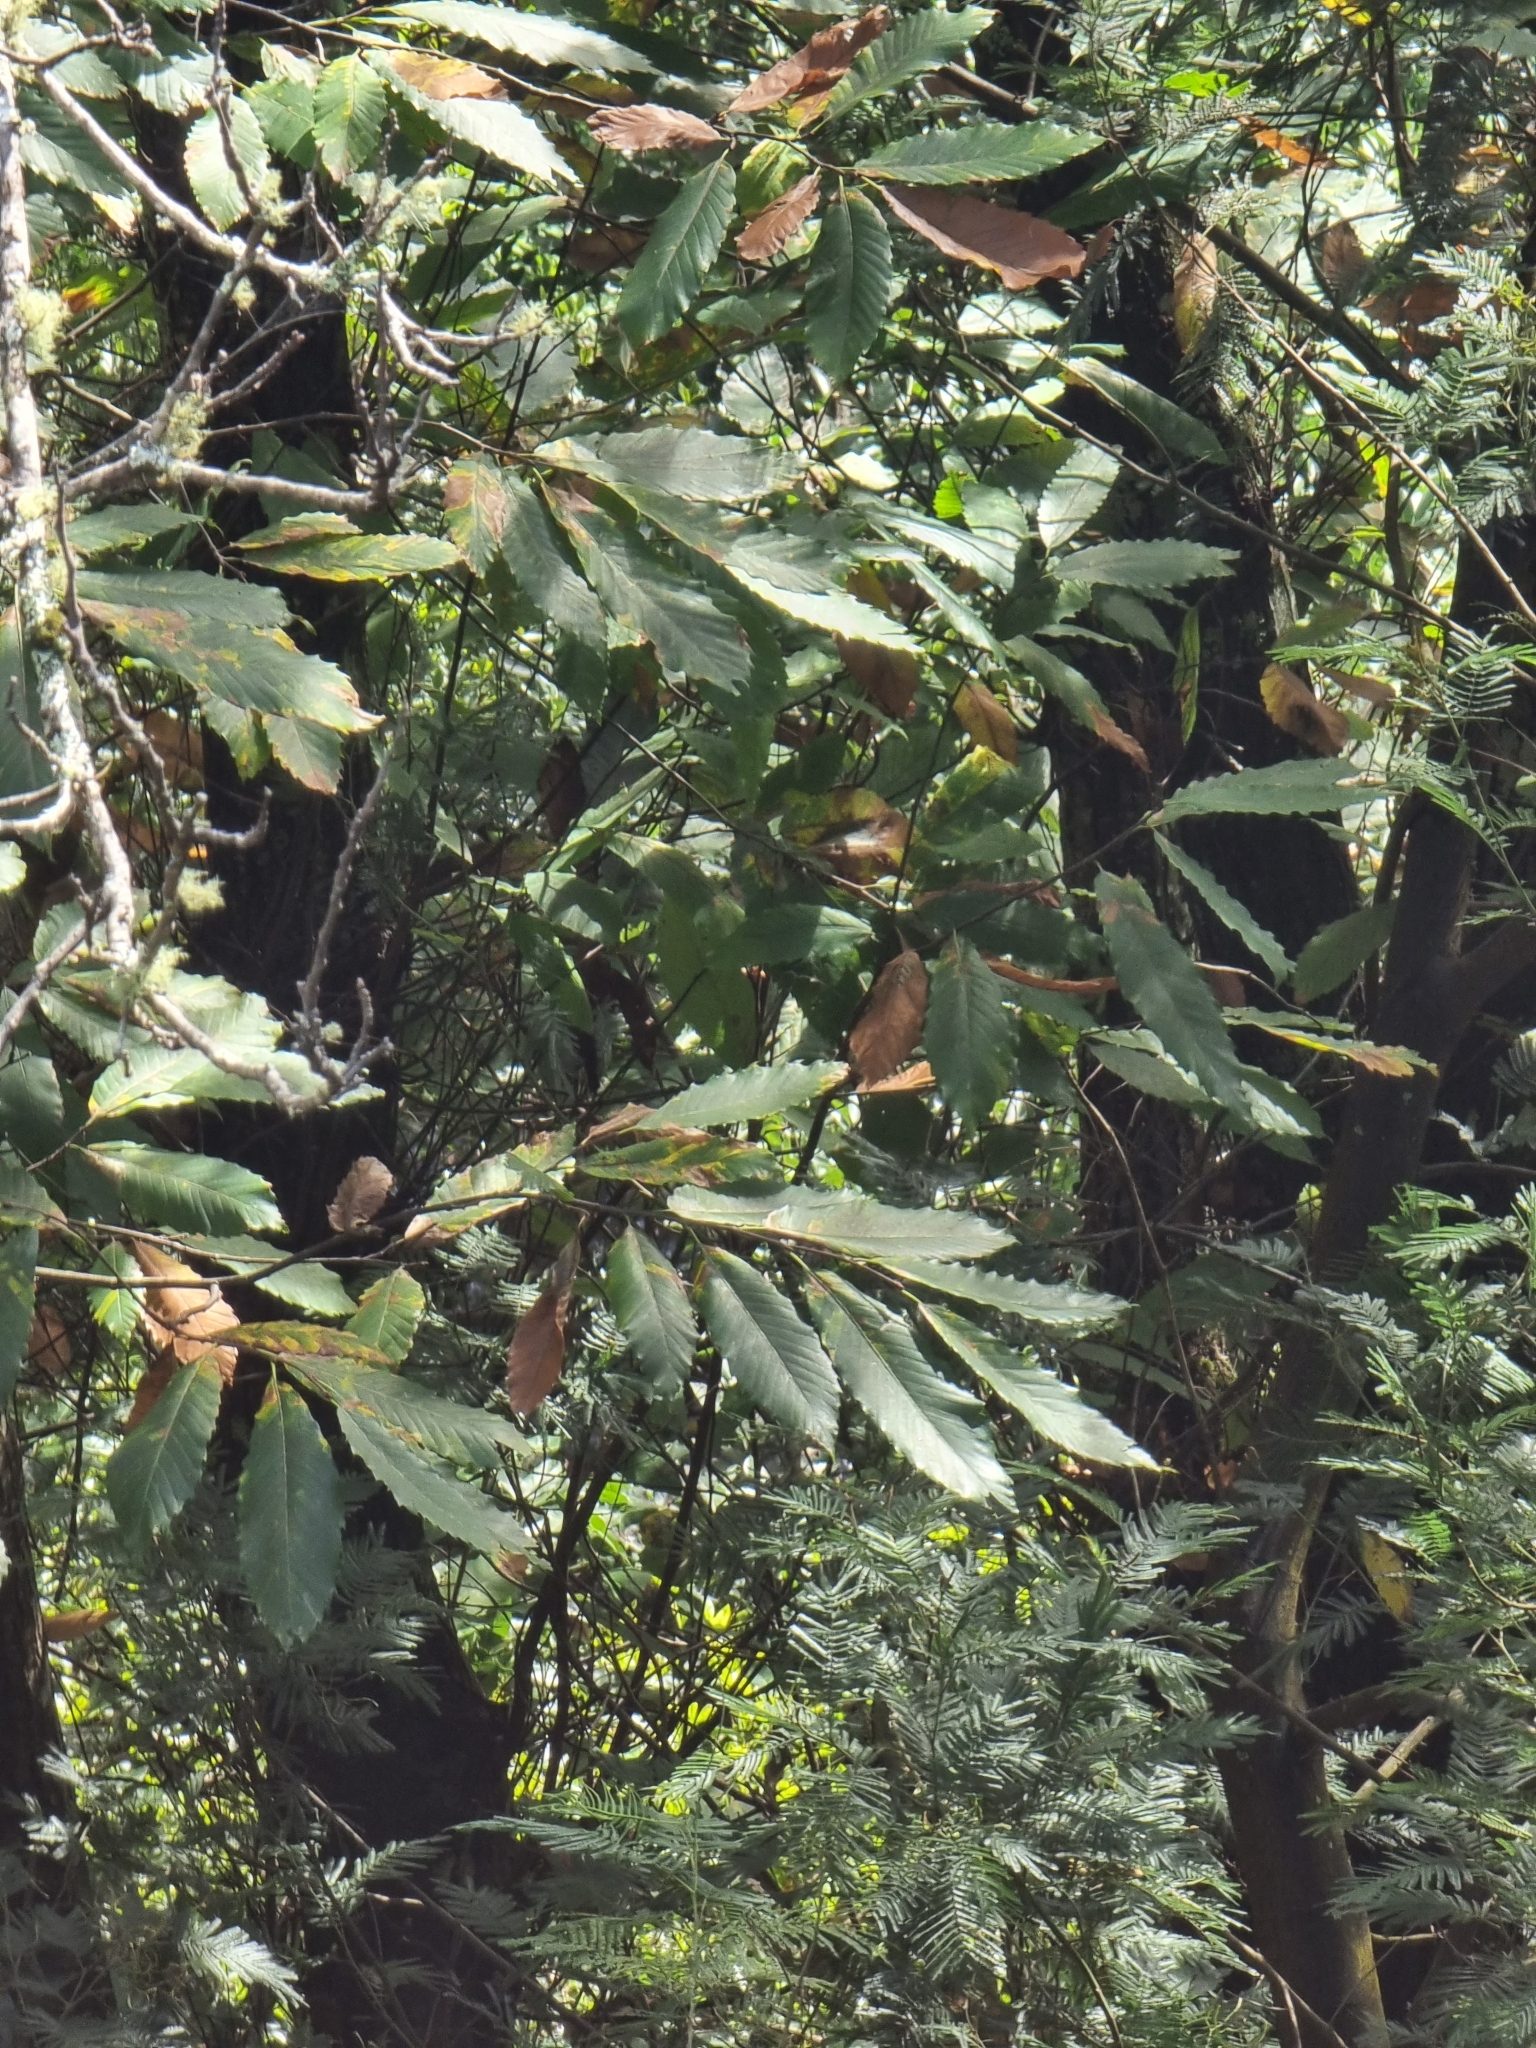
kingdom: Plantae
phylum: Tracheophyta
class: Magnoliopsida
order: Fagales
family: Fagaceae
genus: Castanea
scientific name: Castanea sativa
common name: Sweet chestnut
